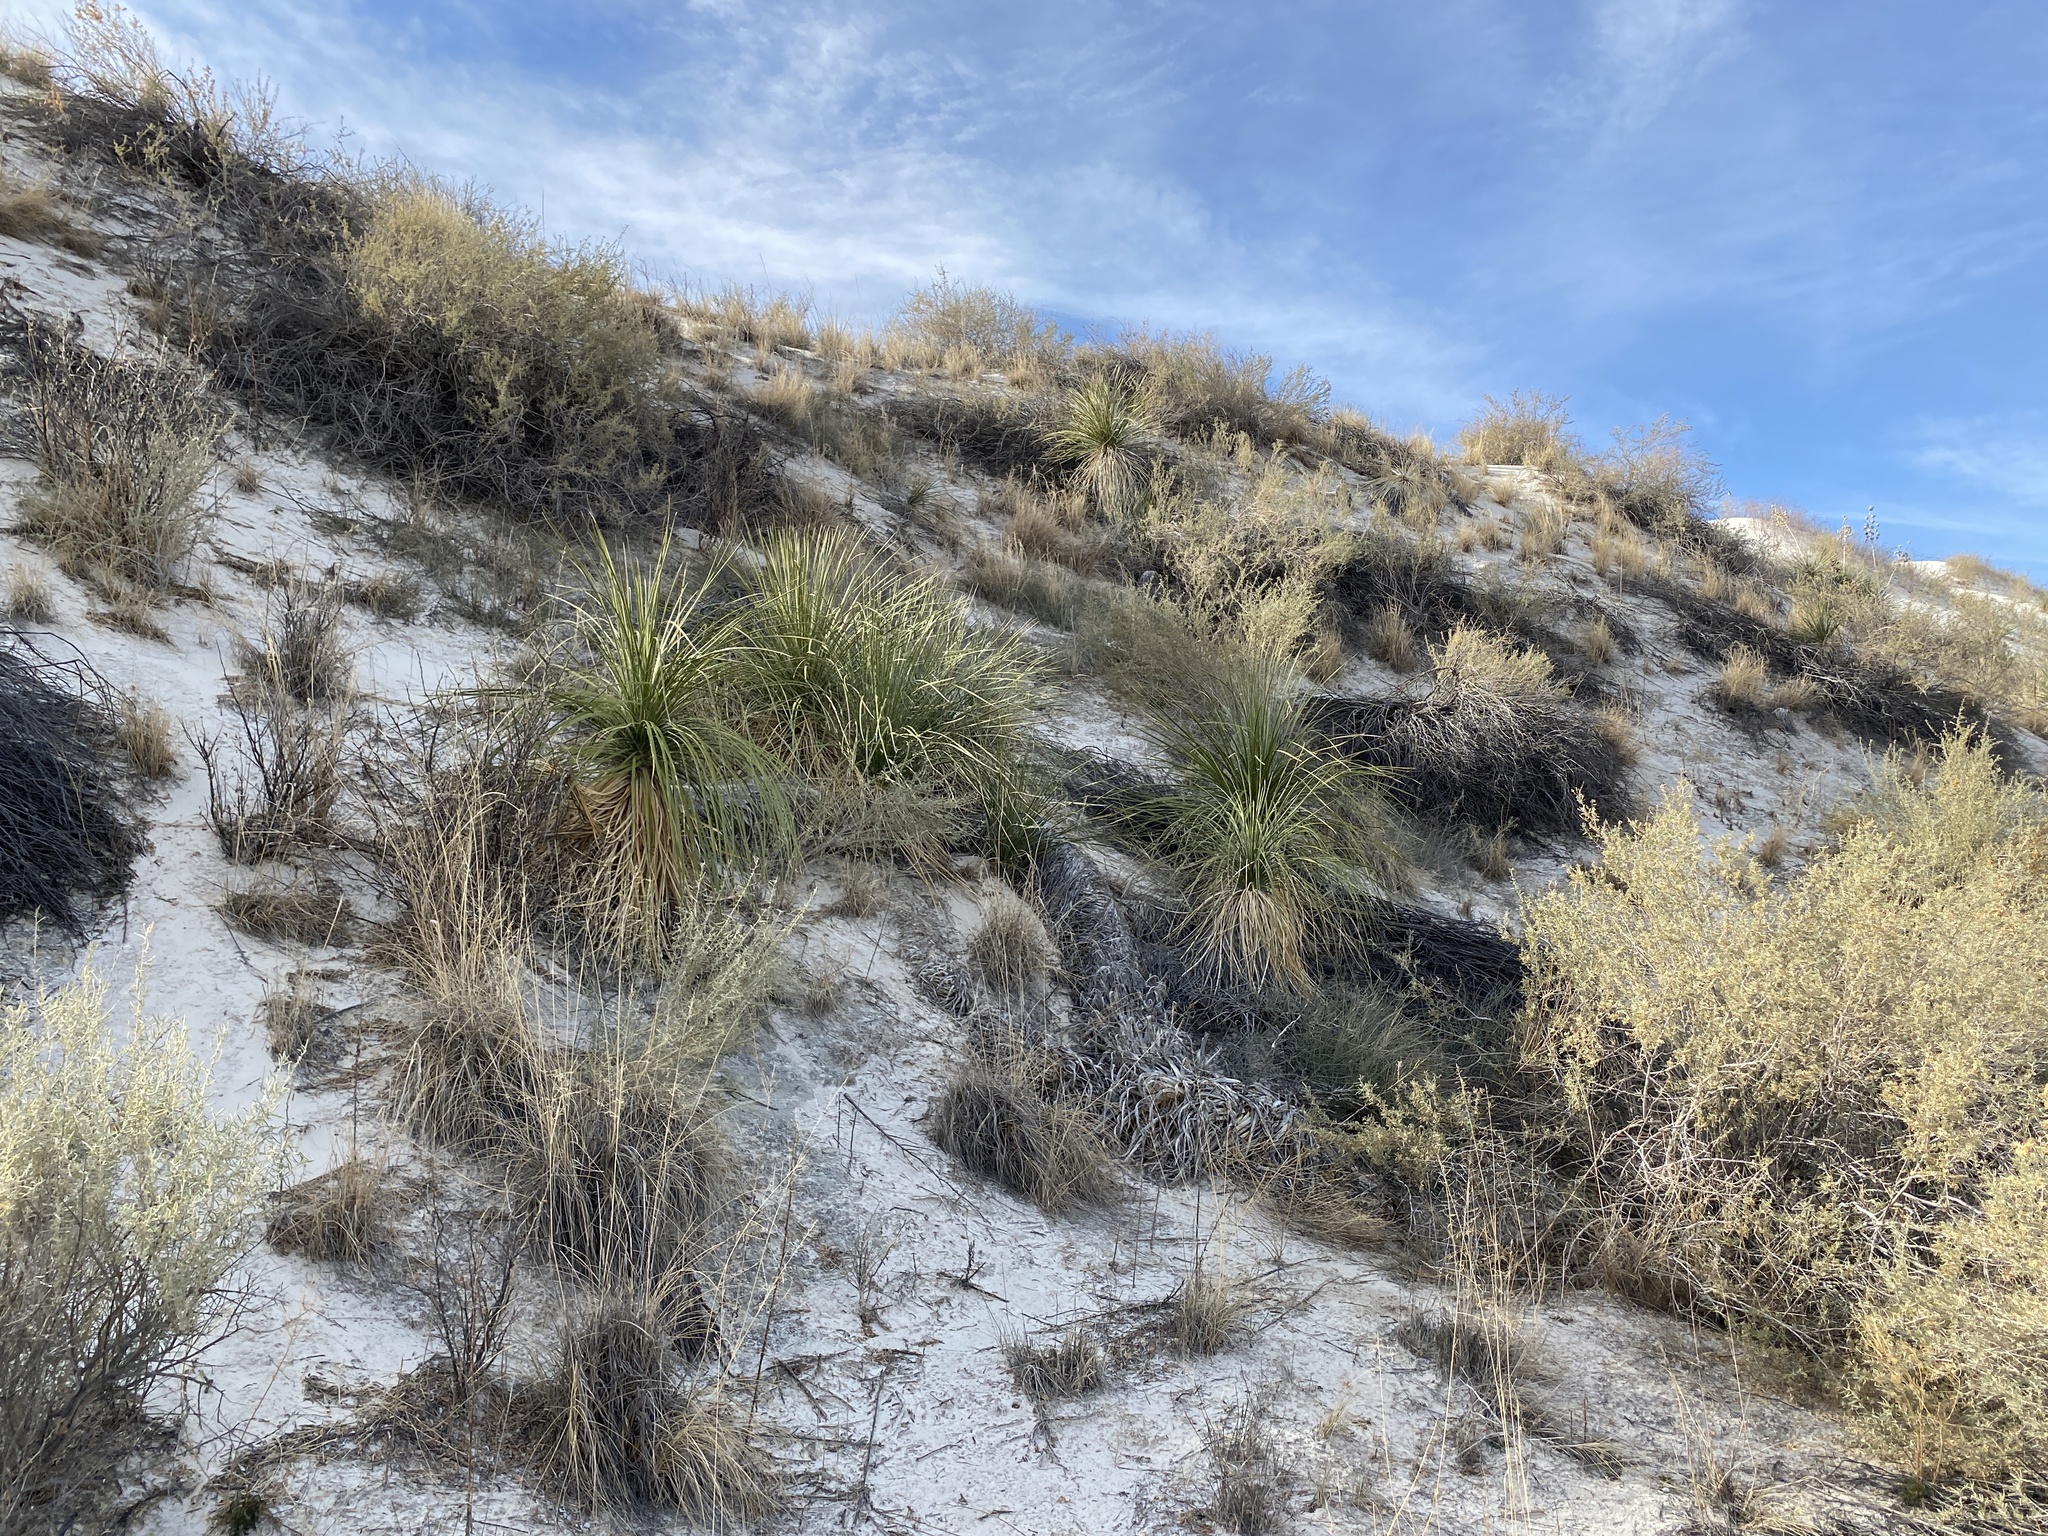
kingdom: Plantae
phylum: Tracheophyta
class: Liliopsida
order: Asparagales
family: Asparagaceae
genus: Yucca
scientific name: Yucca elata
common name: Palmella
